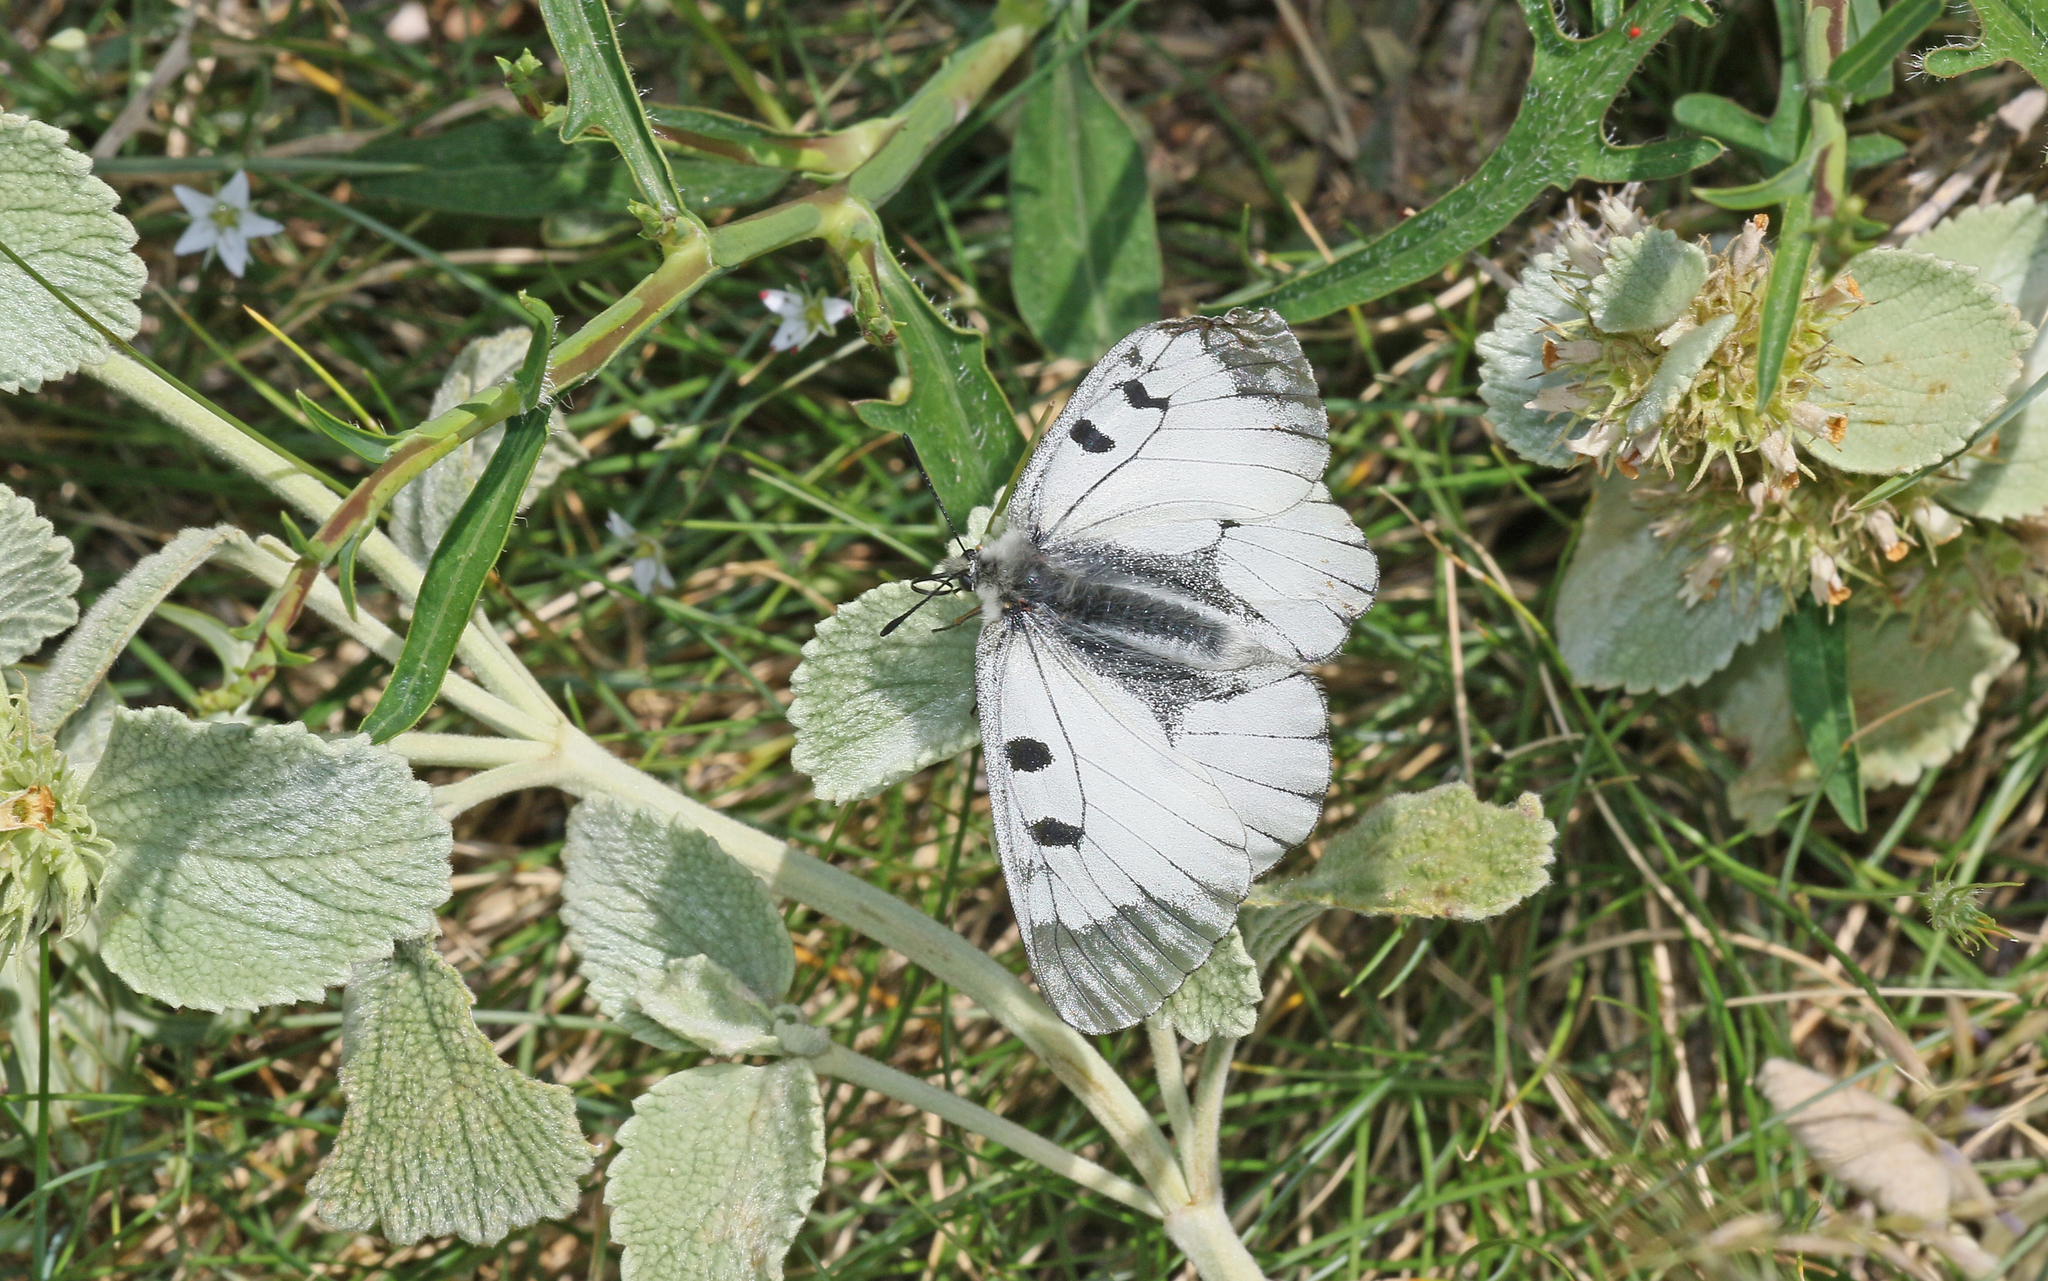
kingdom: Animalia
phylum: Arthropoda
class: Insecta
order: Lepidoptera
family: Papilionidae
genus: Parnassius
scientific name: Parnassius mnemosyne
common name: Clouded apollo
